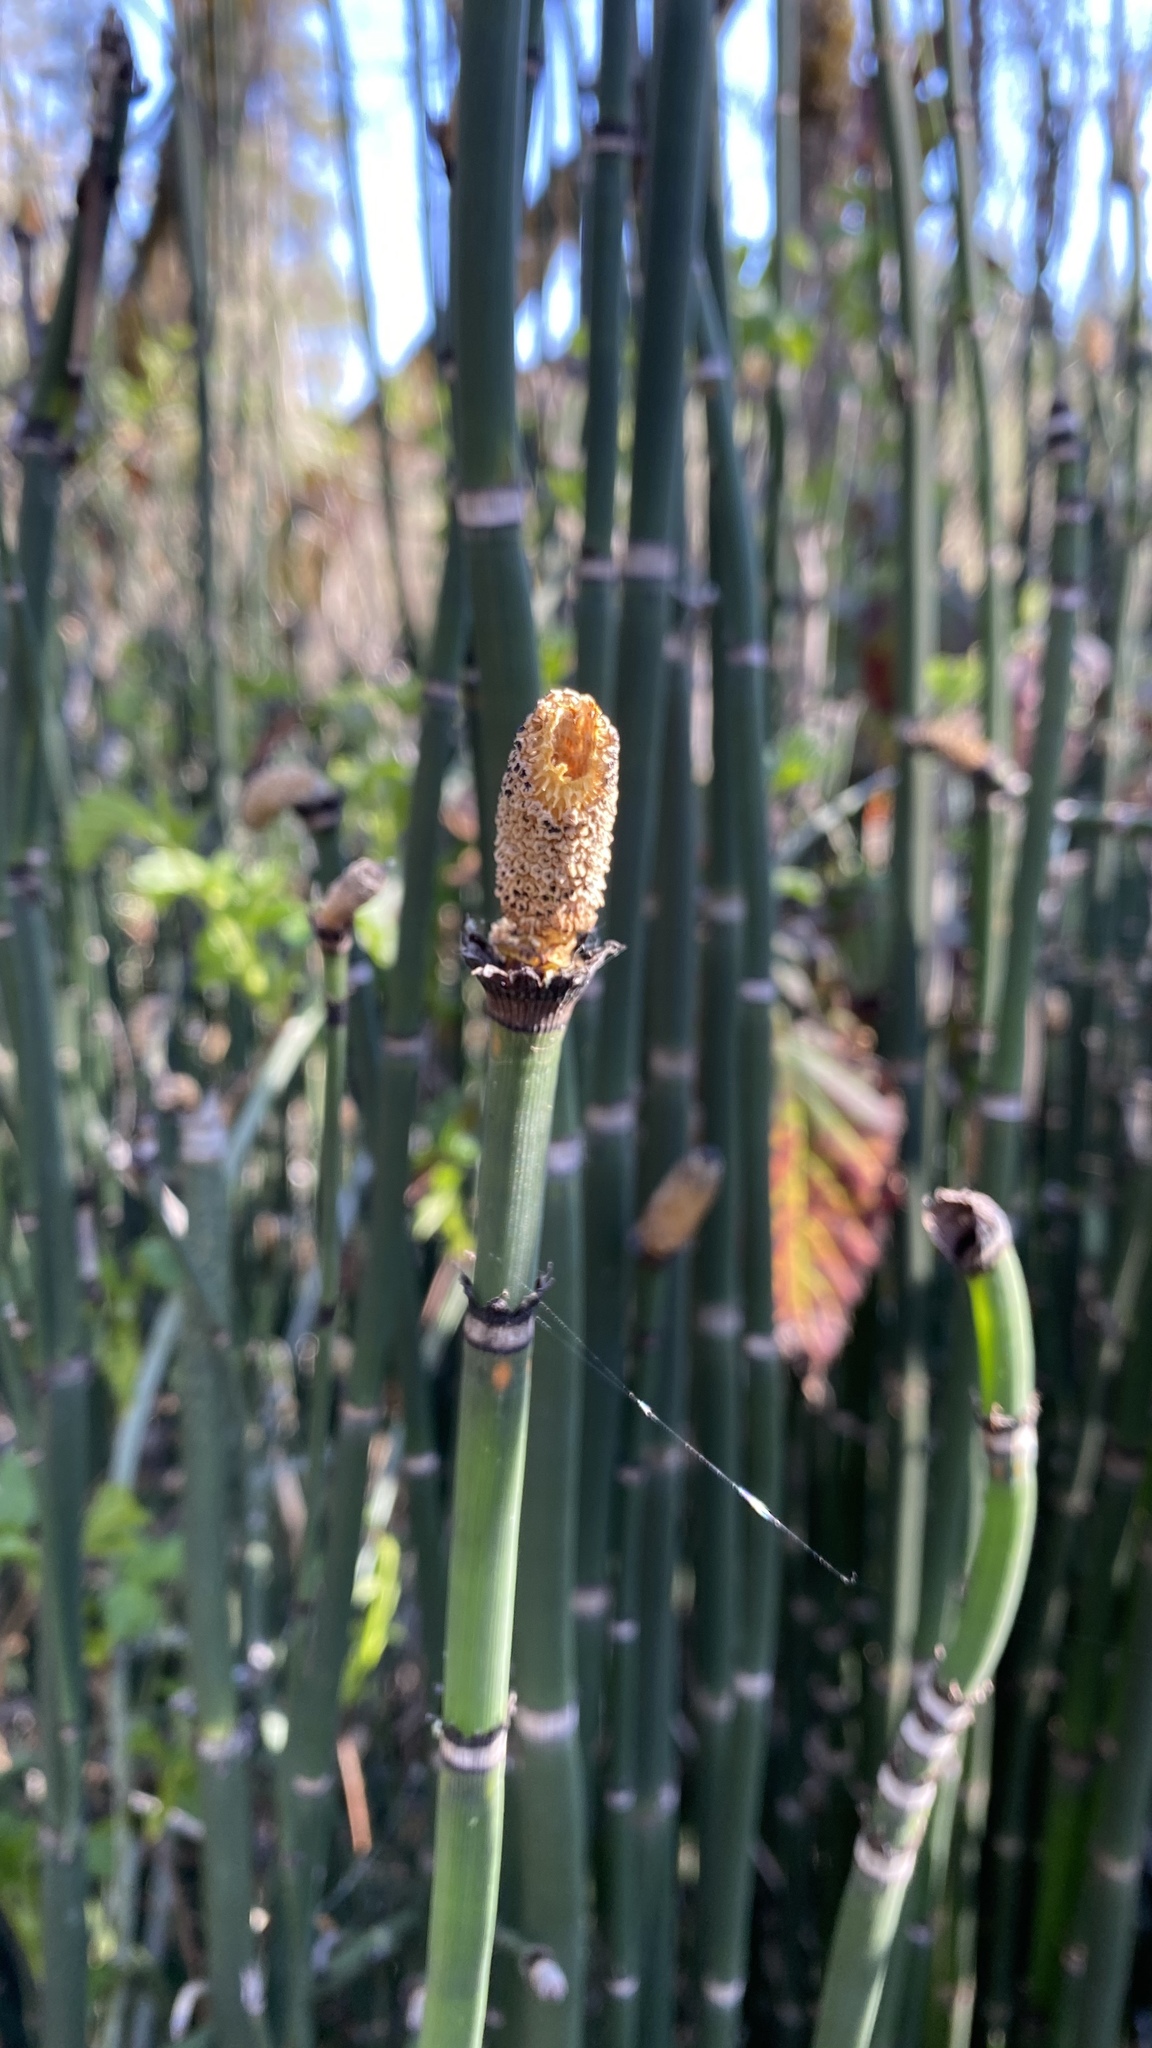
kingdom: Plantae
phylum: Tracheophyta
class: Polypodiopsida
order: Equisetales
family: Equisetaceae
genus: Equisetum
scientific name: Equisetum hyemale
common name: Rough horsetail
